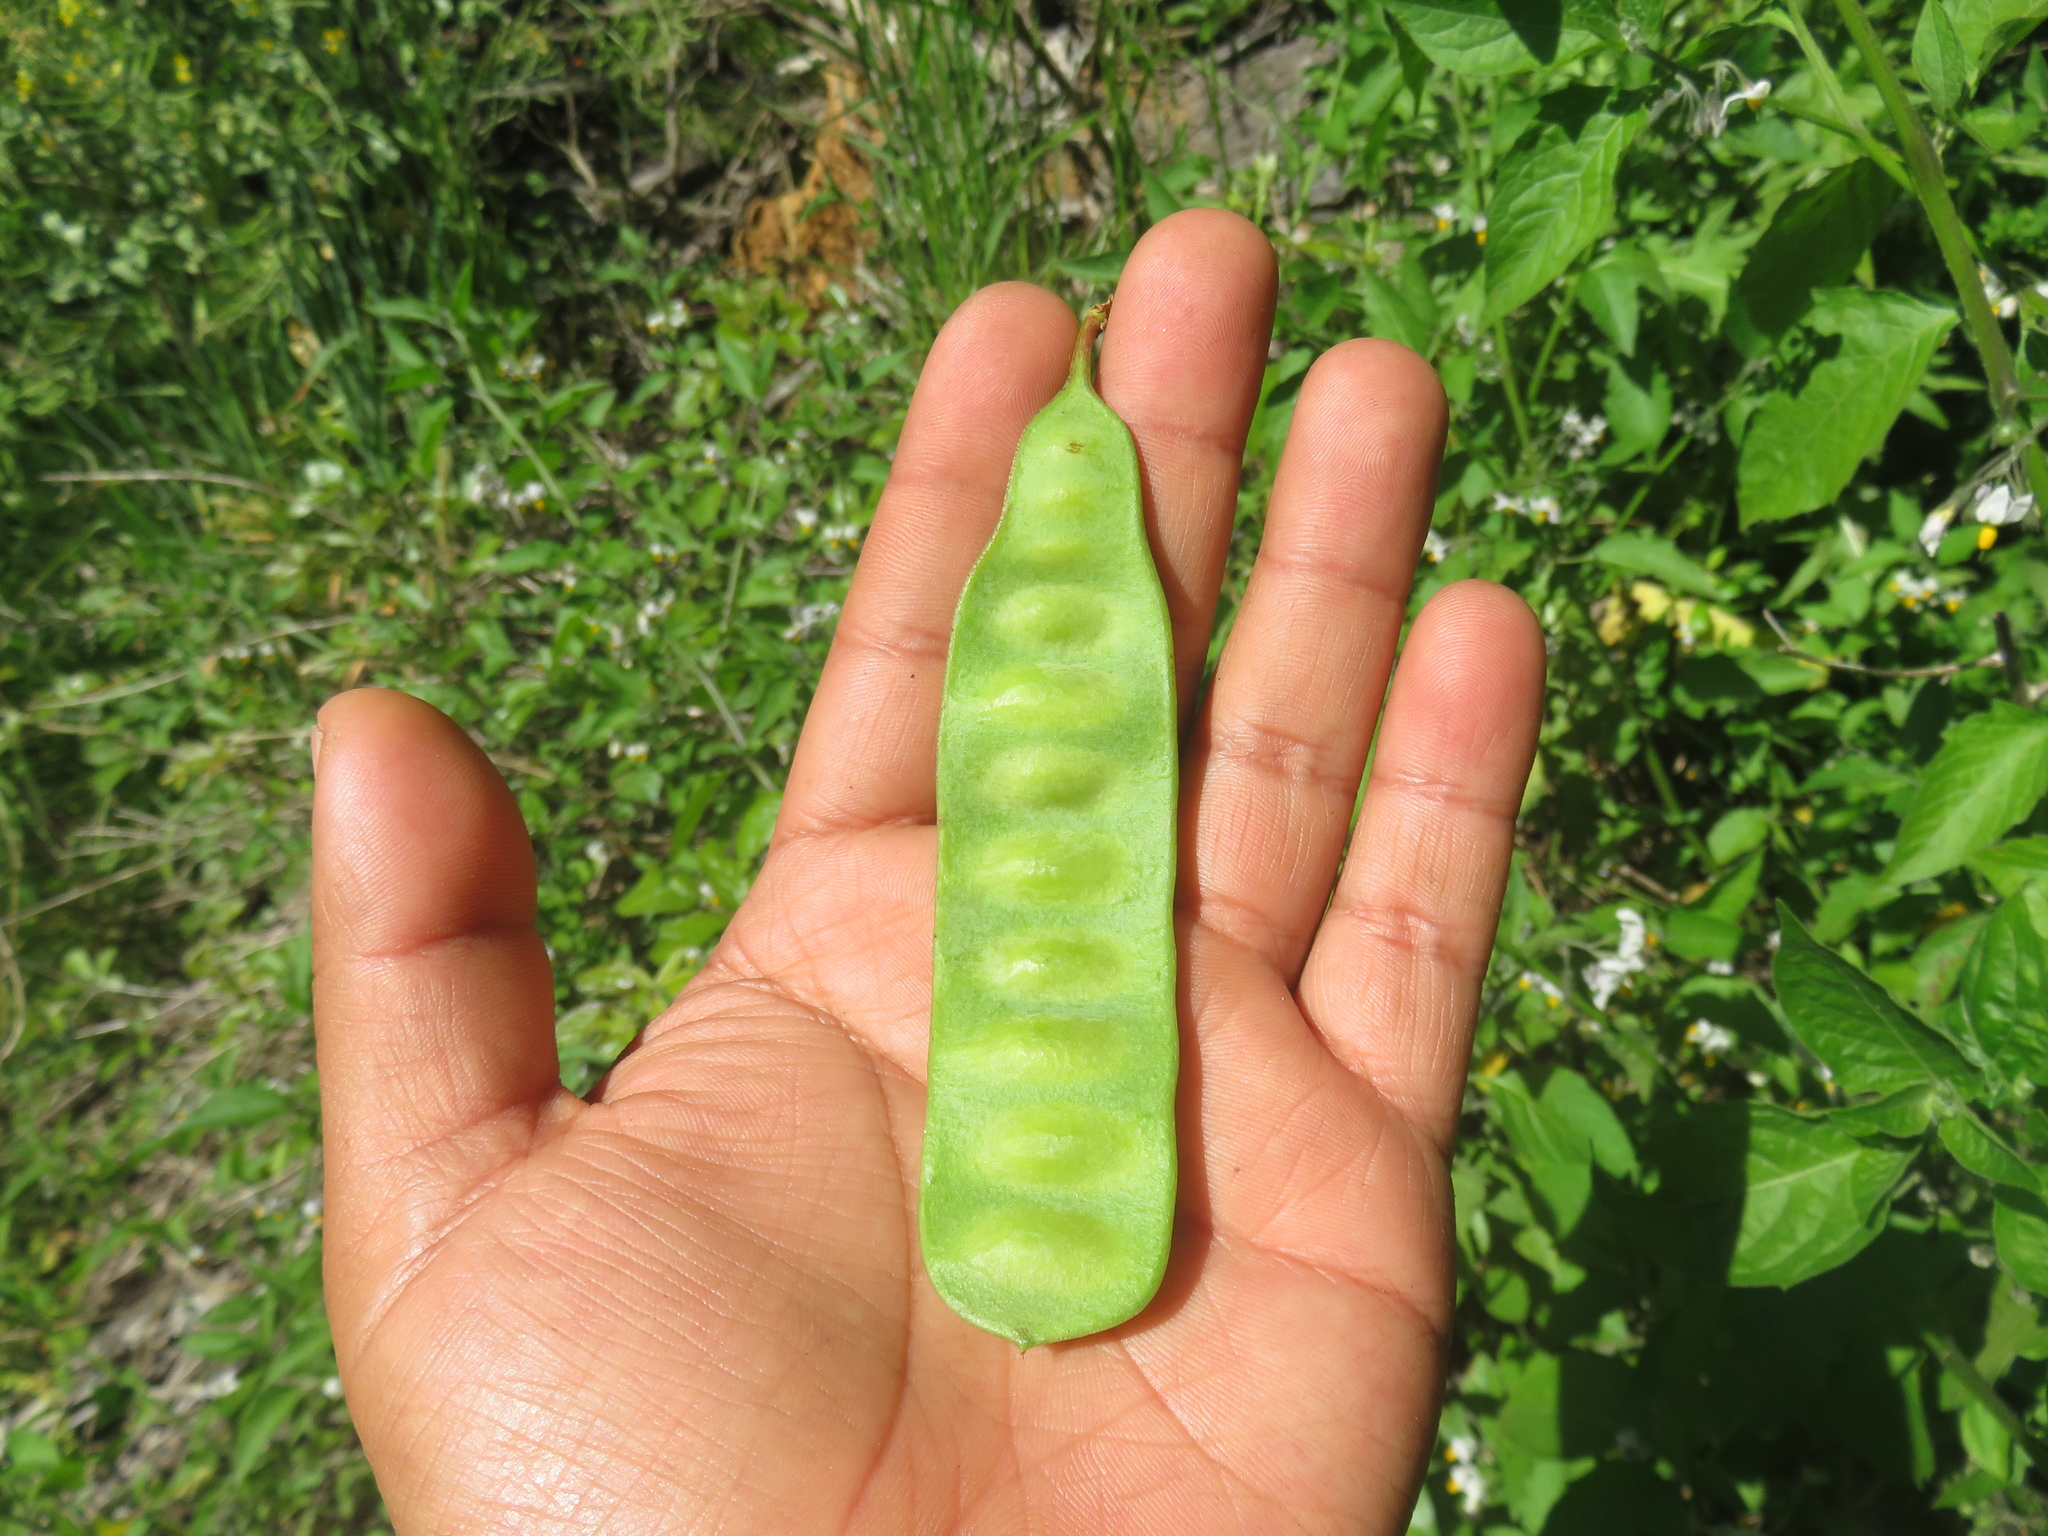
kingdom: Plantae
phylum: Tracheophyta
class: Magnoliopsida
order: Fabales
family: Fabaceae
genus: Paraserianthes
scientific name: Paraserianthes lophantha
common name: Plume albizia
